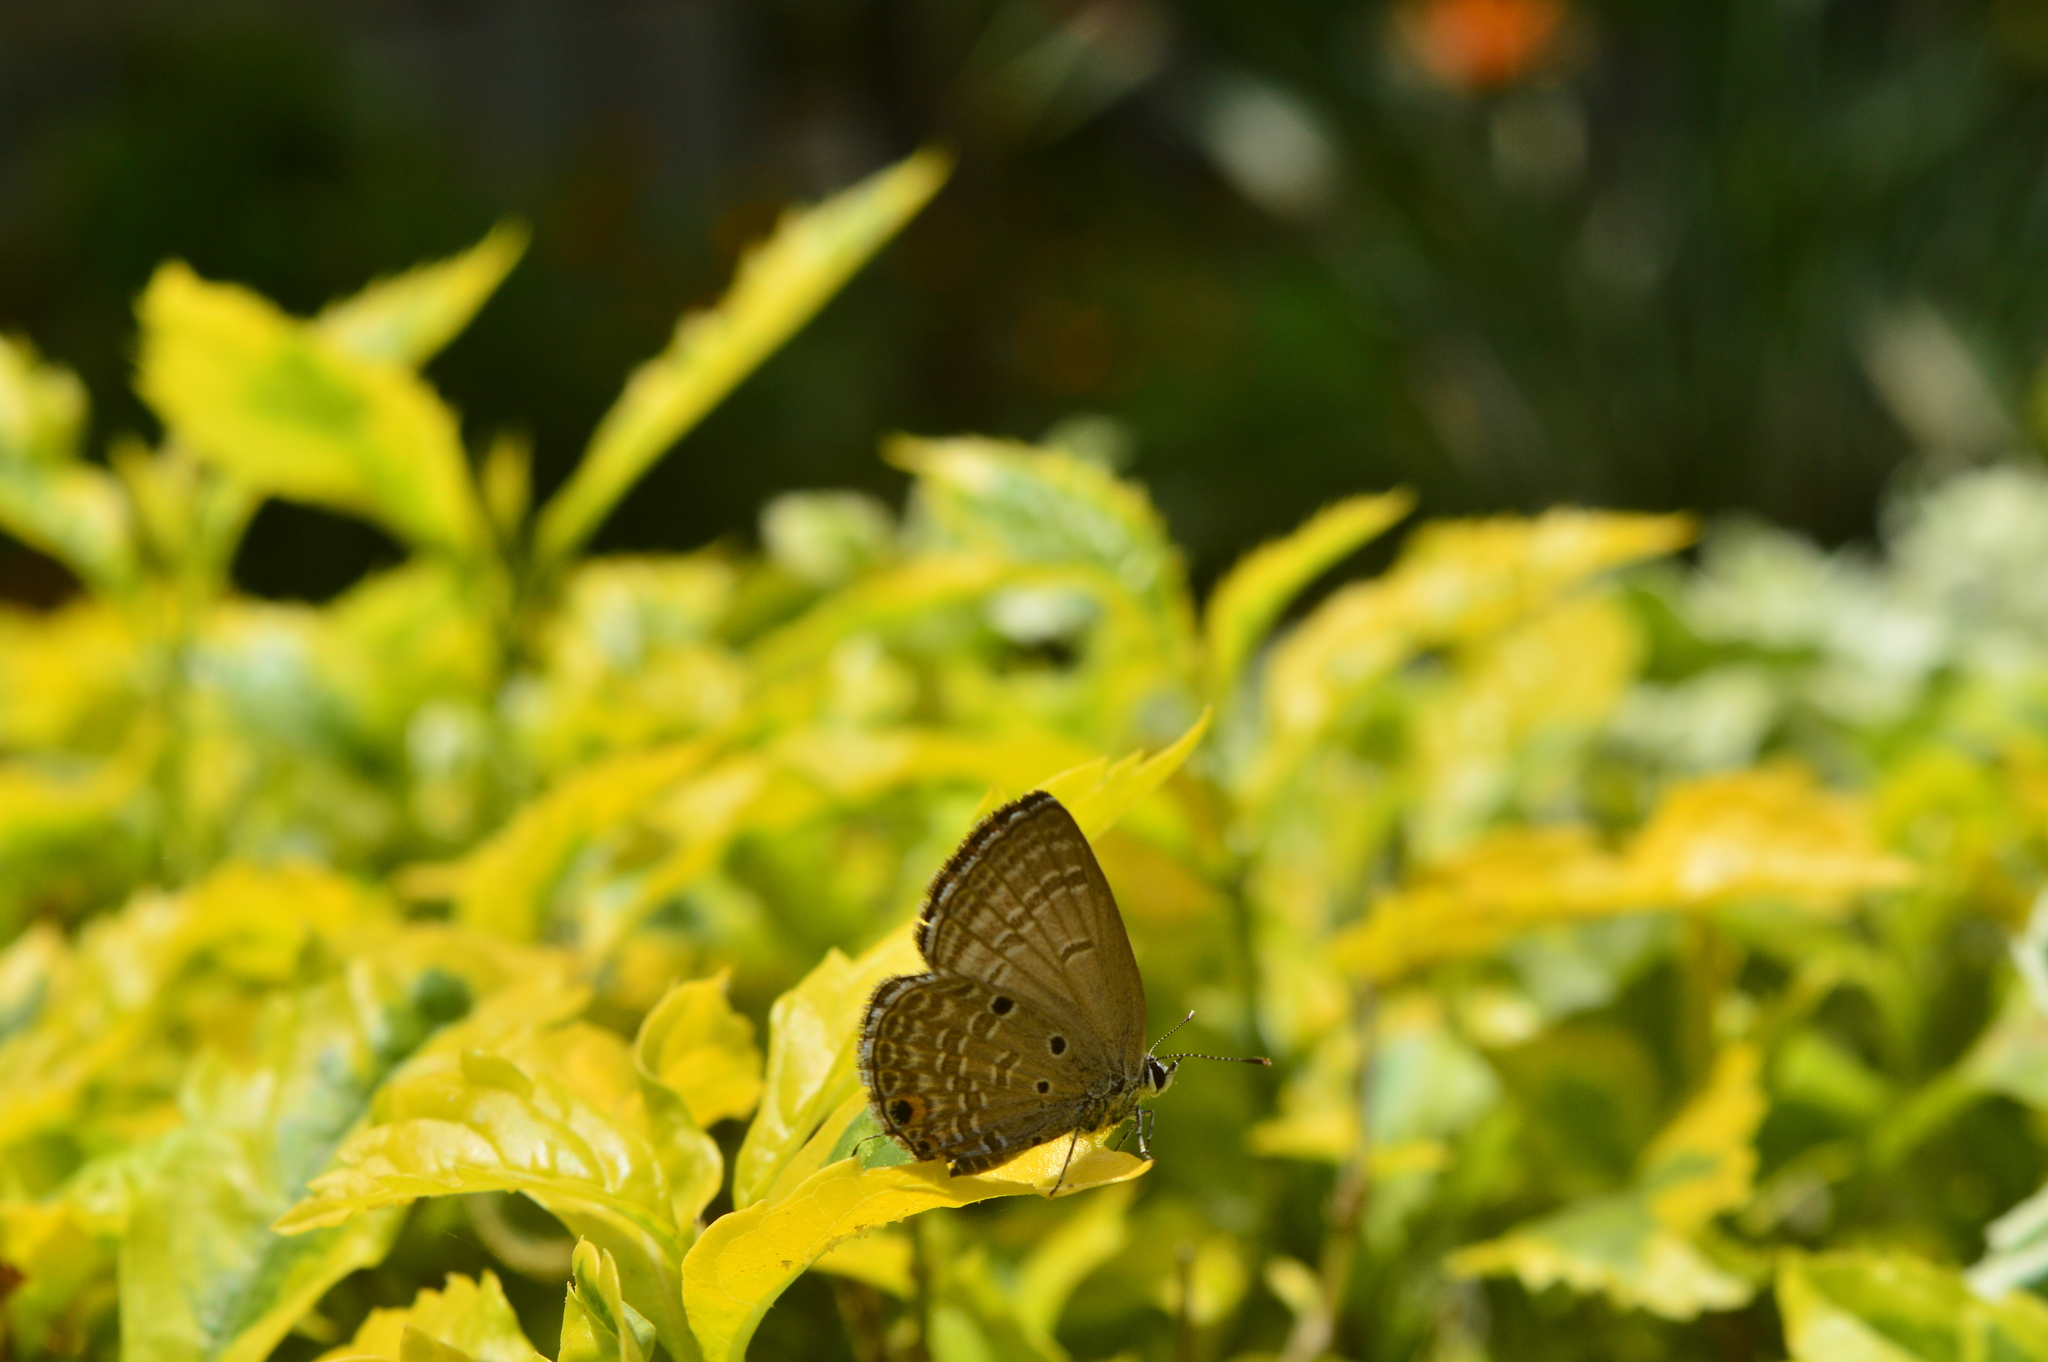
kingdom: Animalia
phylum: Arthropoda
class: Insecta
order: Lepidoptera
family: Lycaenidae
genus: Luthrodes
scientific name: Luthrodes pandava
